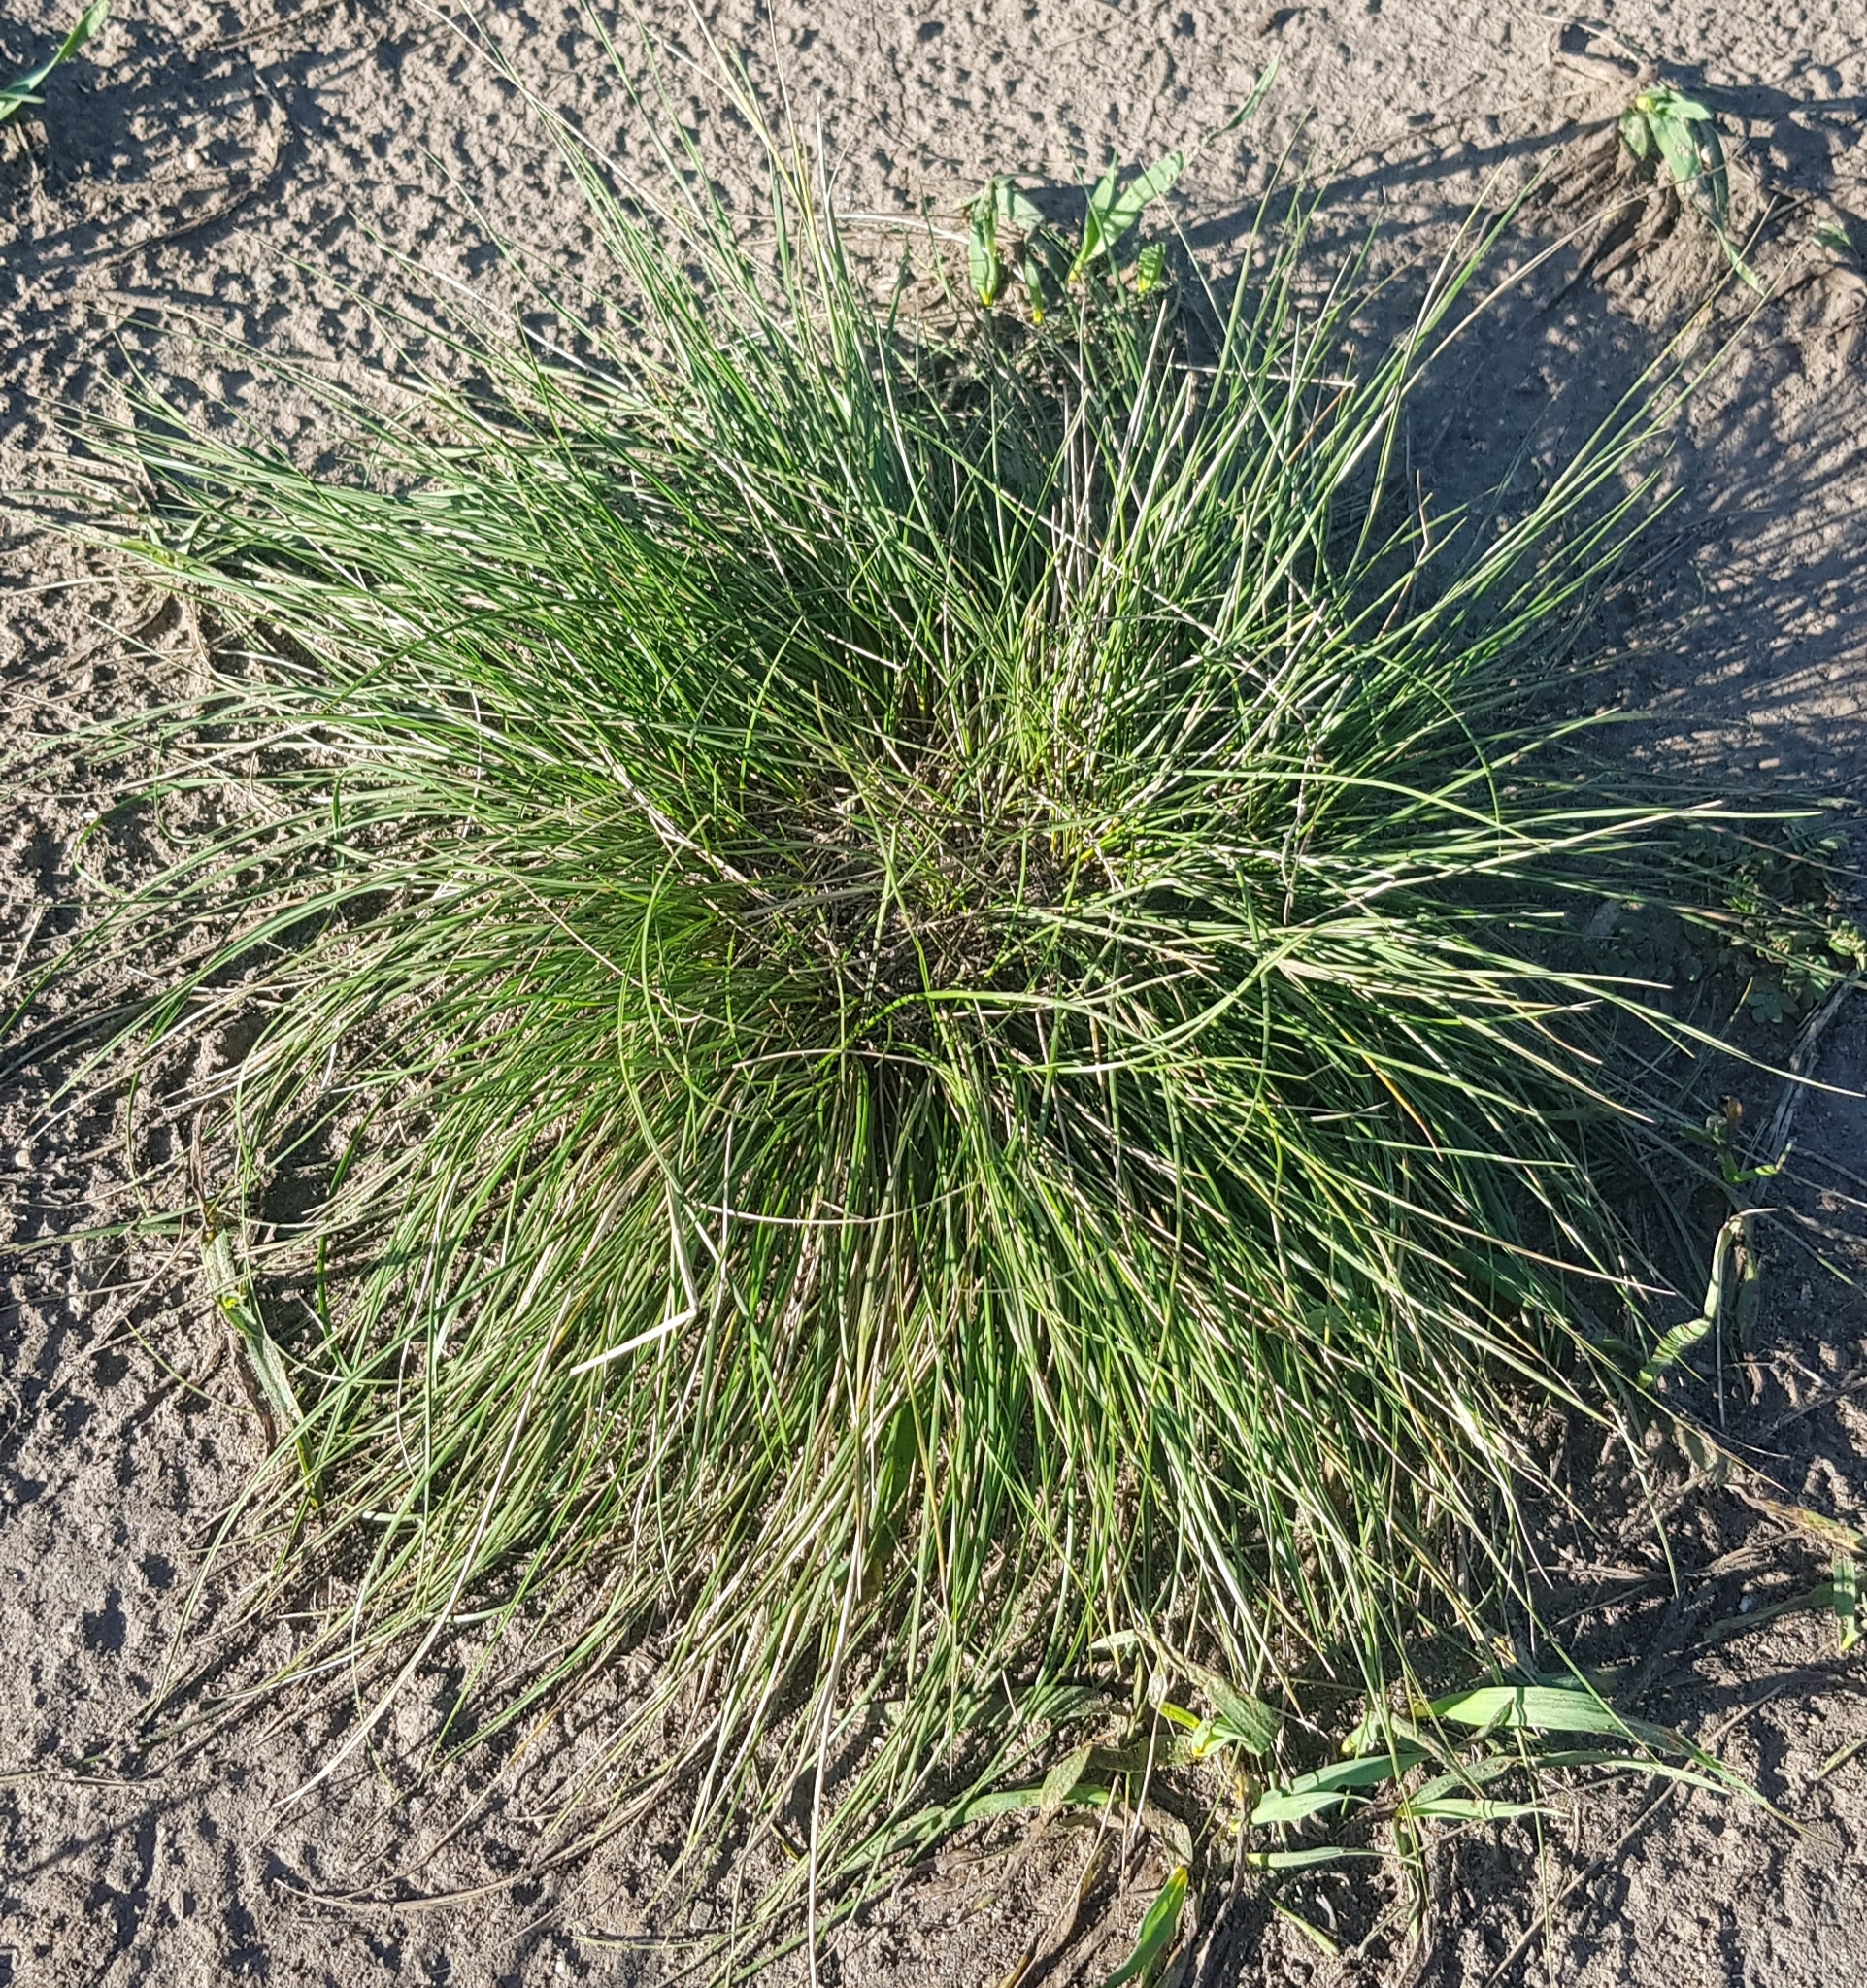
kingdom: Plantae
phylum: Tracheophyta
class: Liliopsida
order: Poales
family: Poaceae
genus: Stipa
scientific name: Stipa krylovii
